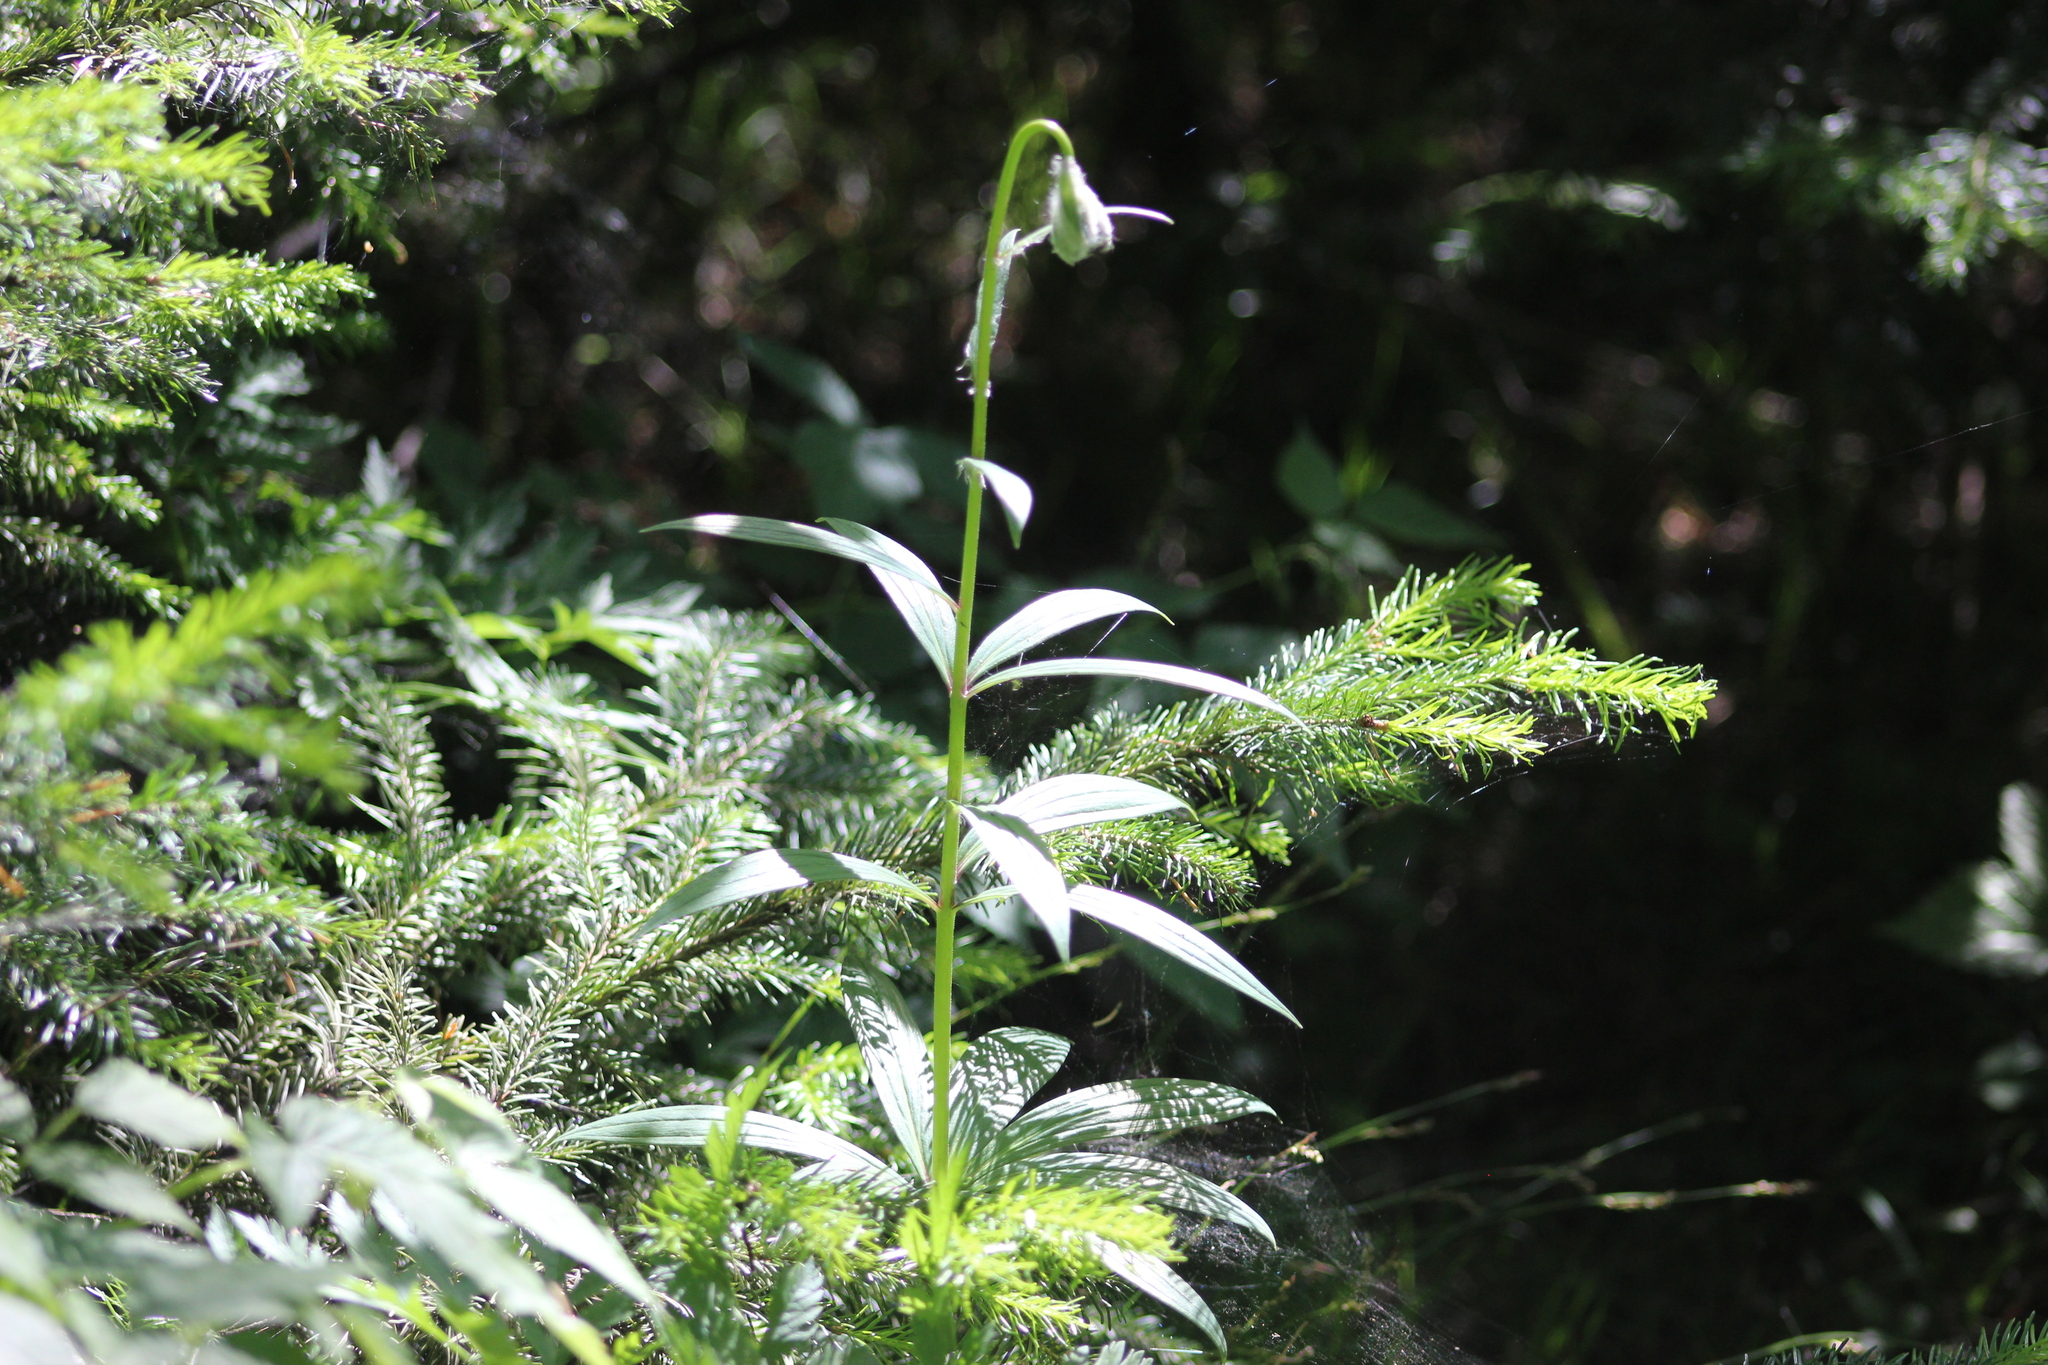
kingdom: Plantae
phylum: Tracheophyta
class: Liliopsida
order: Liliales
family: Liliaceae
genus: Lilium
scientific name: Lilium martagon
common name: Martagon lily
